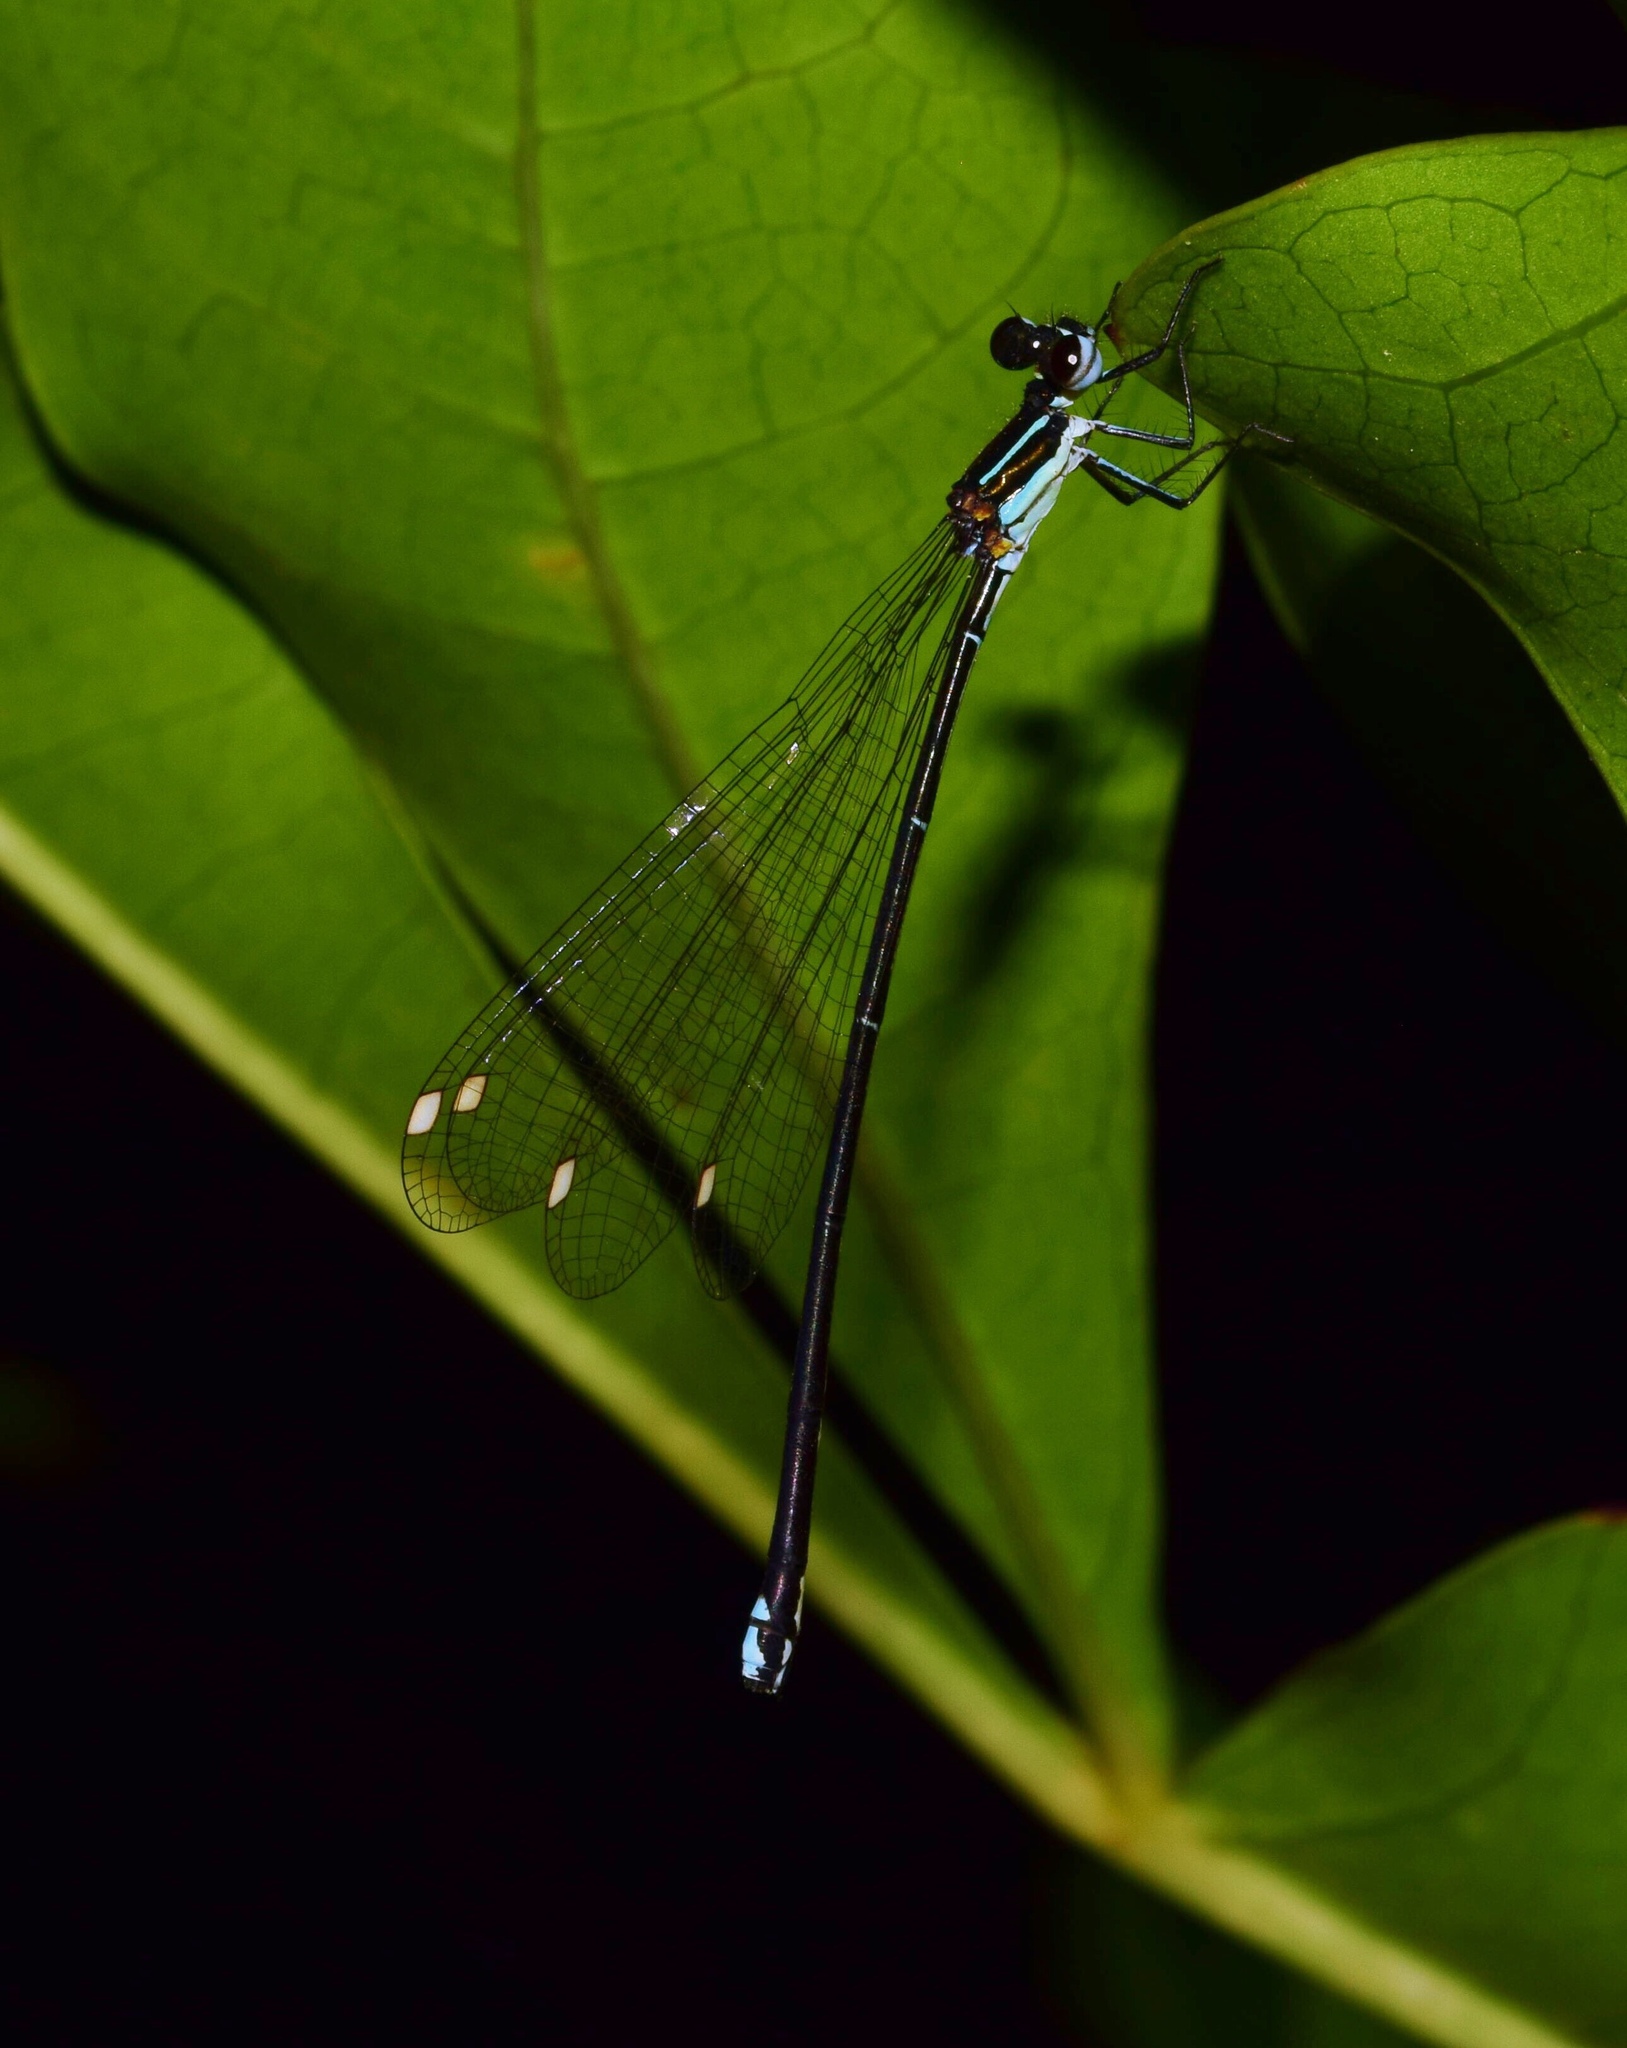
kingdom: Animalia
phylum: Arthropoda
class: Insecta
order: Odonata
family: Platycnemididae
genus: Allocnemis
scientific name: Allocnemis leucosticta
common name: Goldtail
